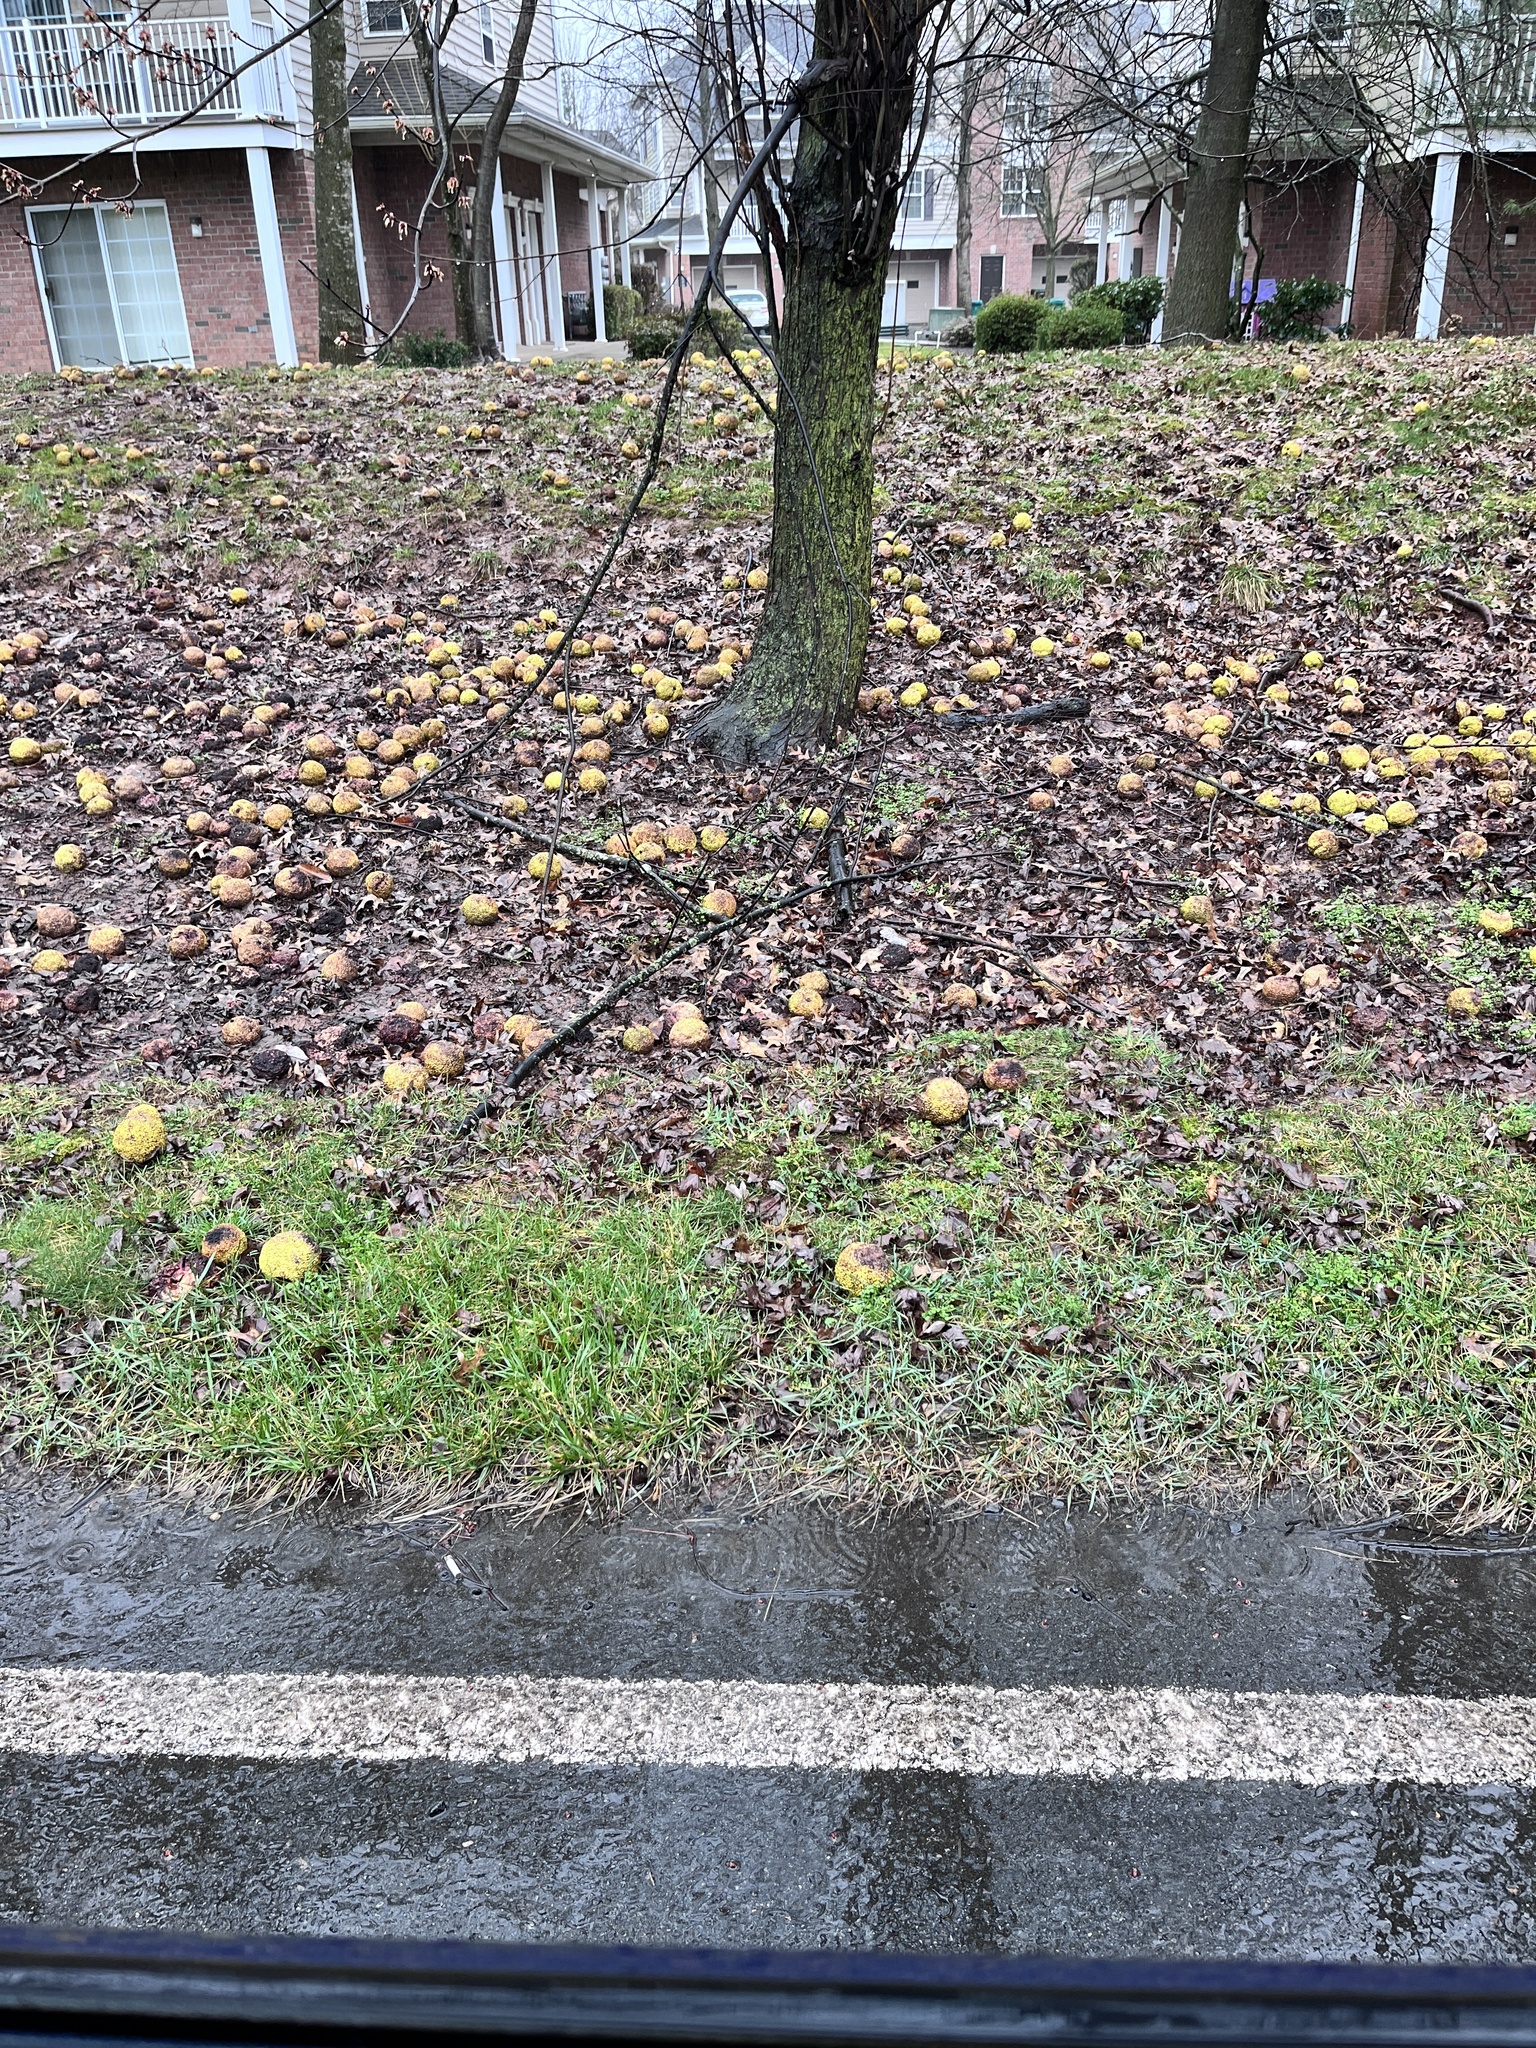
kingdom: Plantae
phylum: Tracheophyta
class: Magnoliopsida
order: Rosales
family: Moraceae
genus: Maclura
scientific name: Maclura pomifera
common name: Osage-orange
